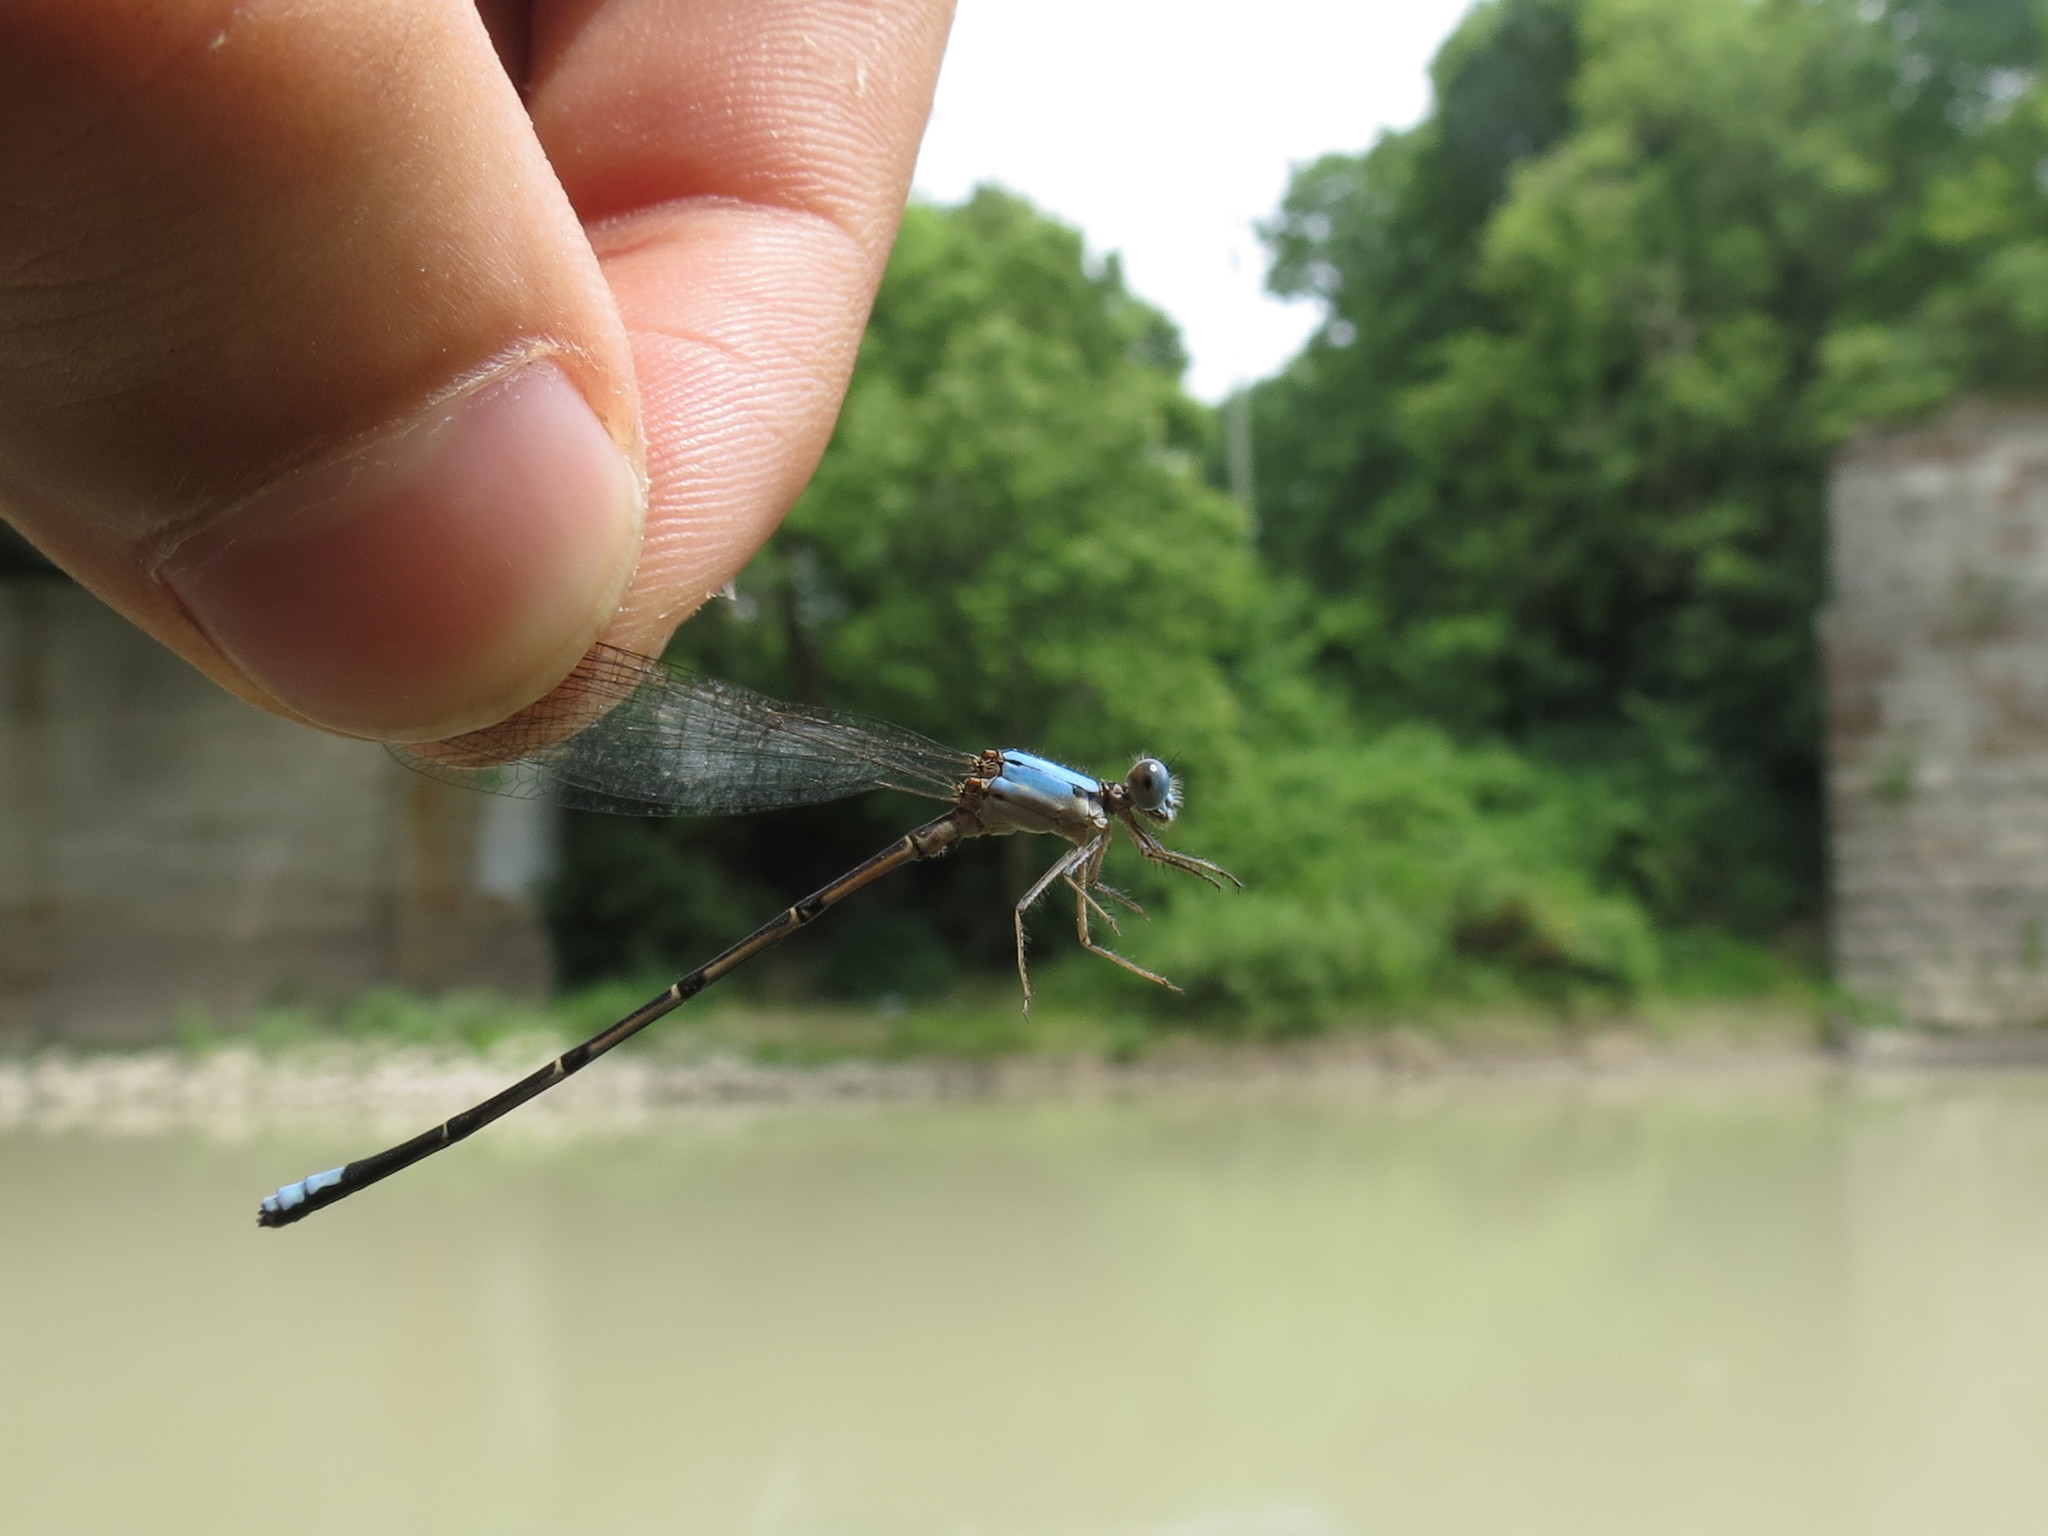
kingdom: Animalia
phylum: Arthropoda
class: Insecta
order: Odonata
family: Coenagrionidae
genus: Argia
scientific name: Argia apicalis
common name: Blue-fronted dancer
